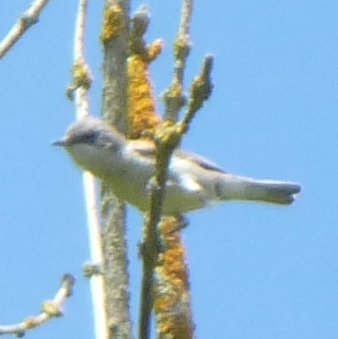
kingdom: Animalia
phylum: Chordata
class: Aves
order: Passeriformes
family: Sylviidae
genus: Sylvia
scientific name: Sylvia curruca
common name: Lesser whitethroat
